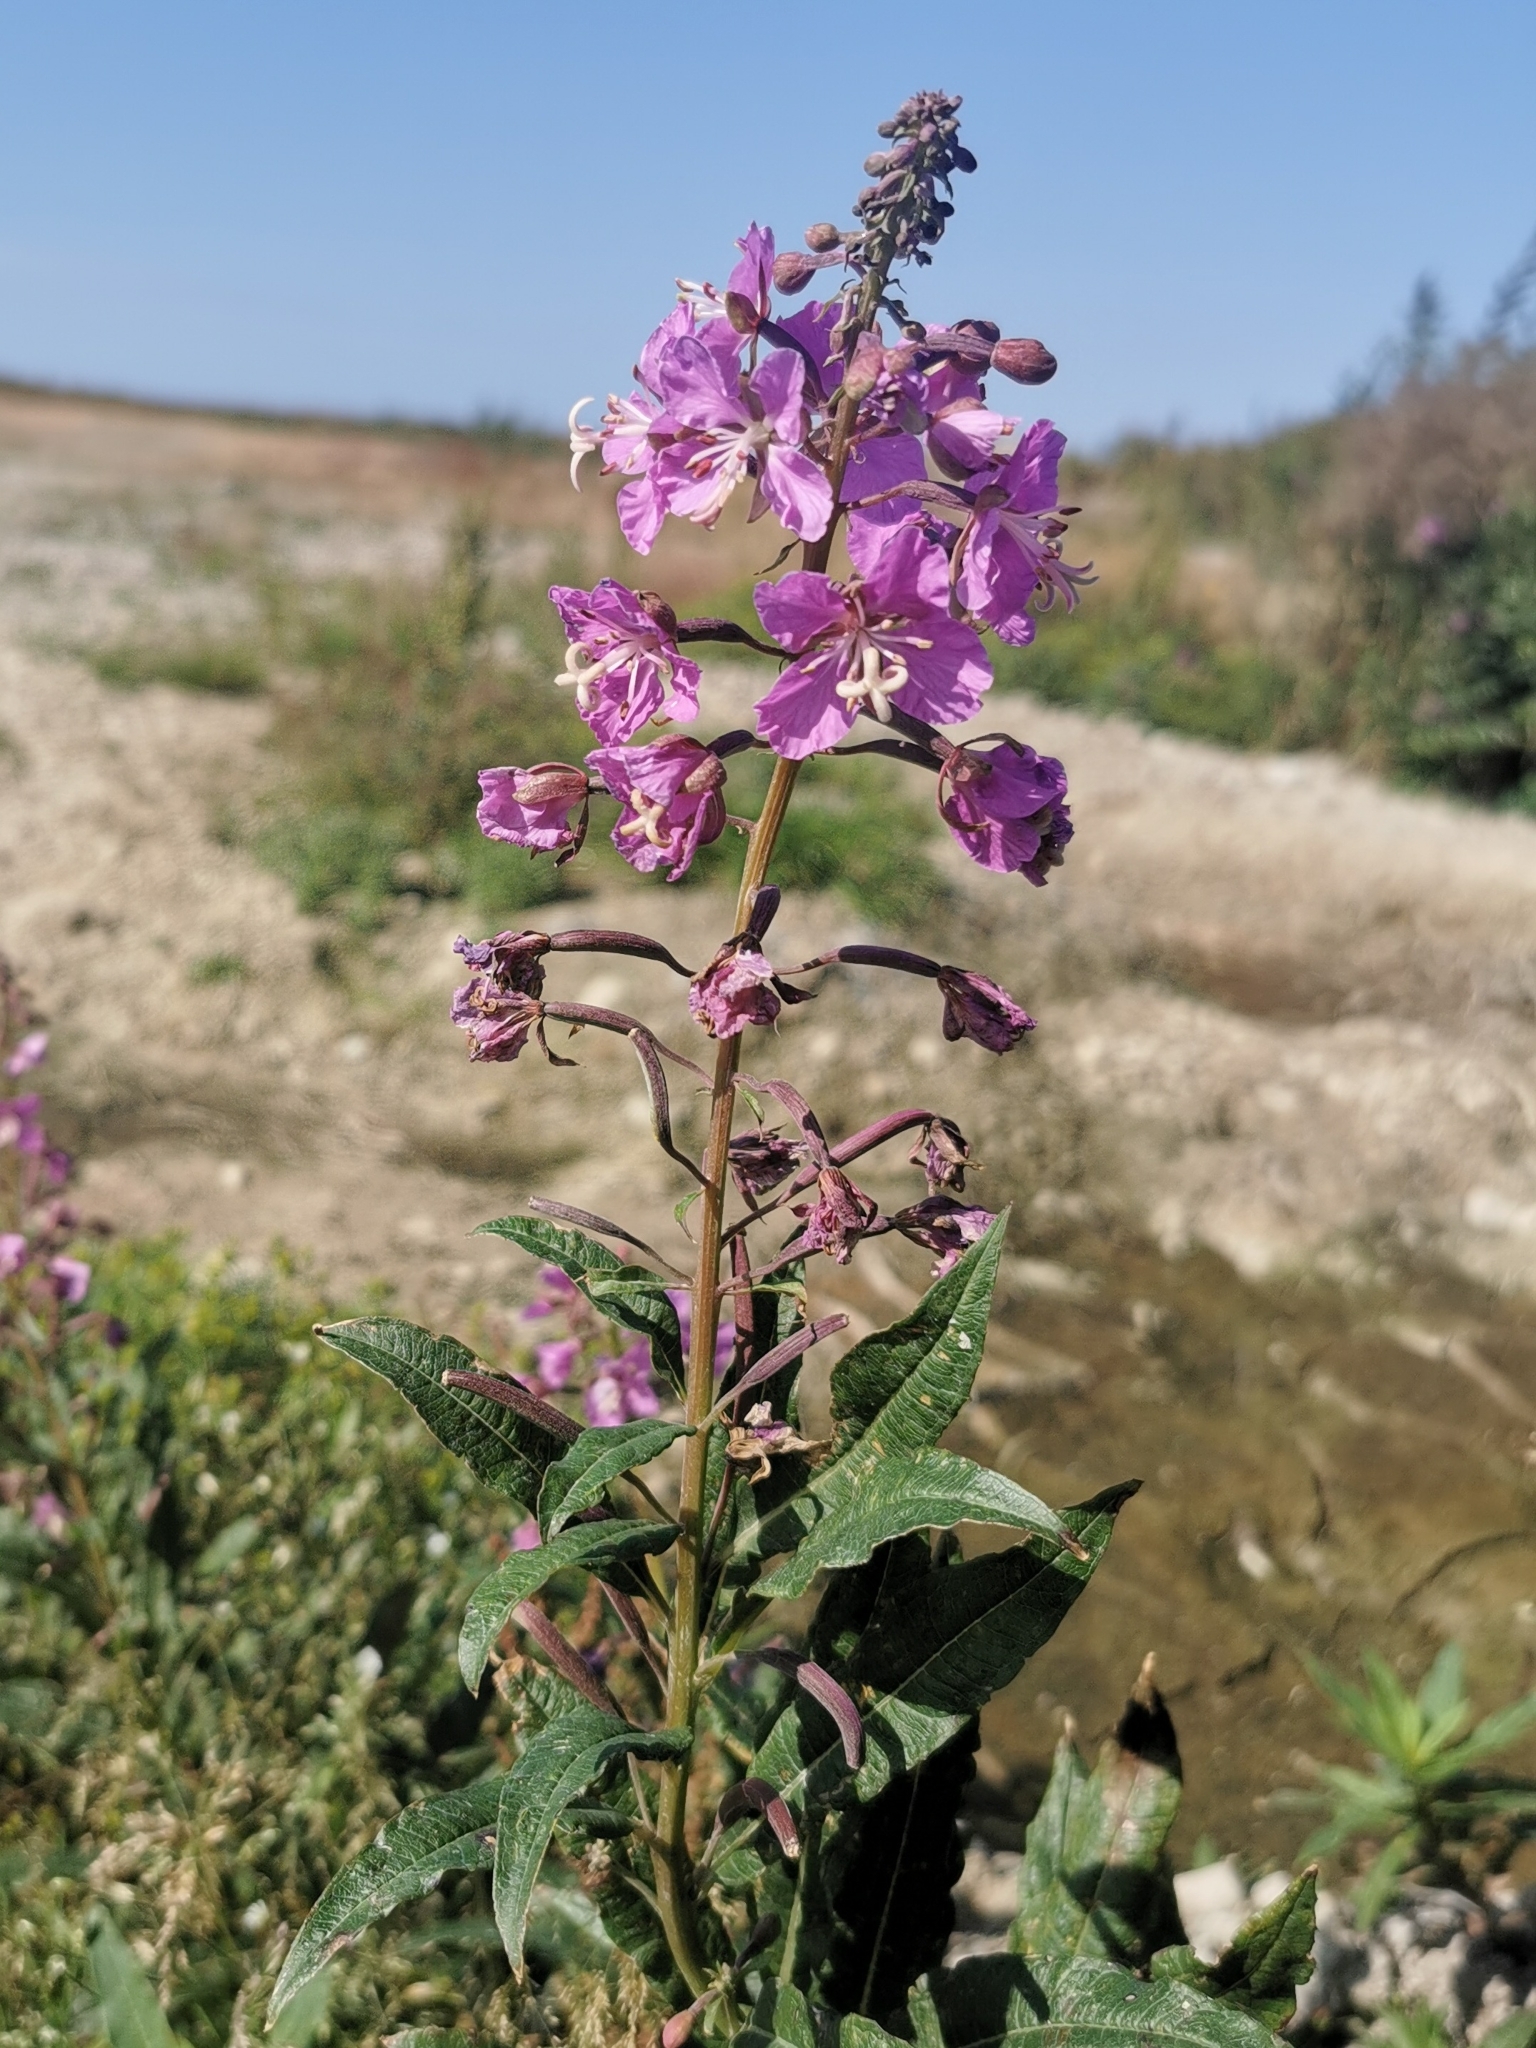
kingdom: Plantae
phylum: Tracheophyta
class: Magnoliopsida
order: Myrtales
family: Onagraceae
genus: Chamaenerion
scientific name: Chamaenerion angustifolium
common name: Fireweed
